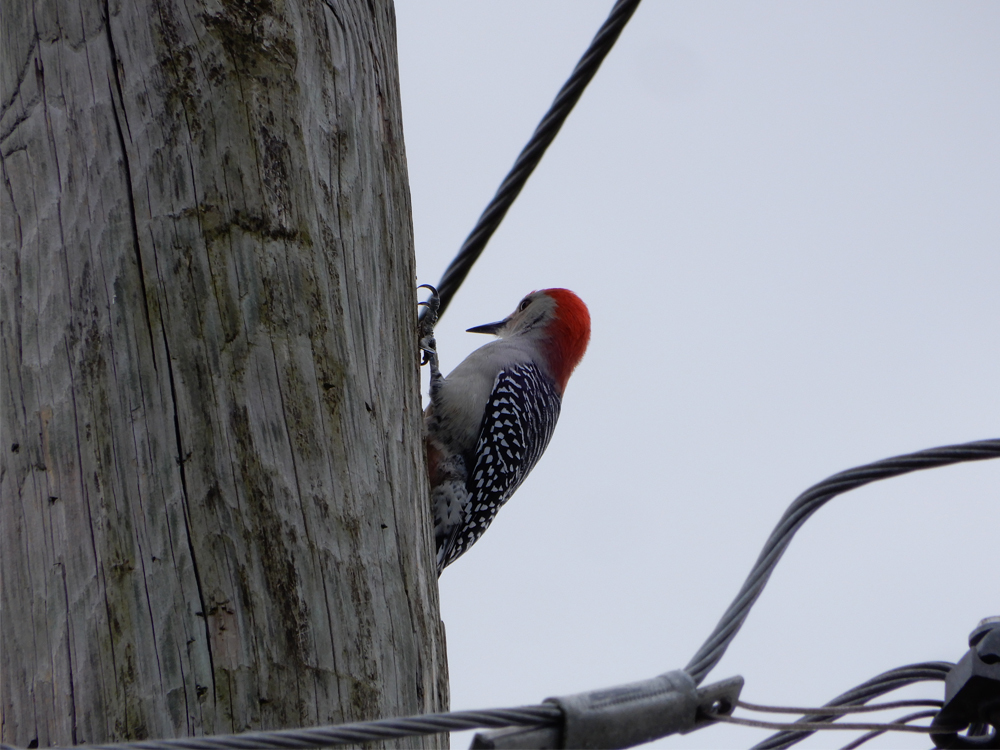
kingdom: Animalia
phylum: Chordata
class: Aves
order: Piciformes
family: Picidae
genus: Melanerpes
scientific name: Melanerpes carolinus
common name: Red-bellied woodpecker
